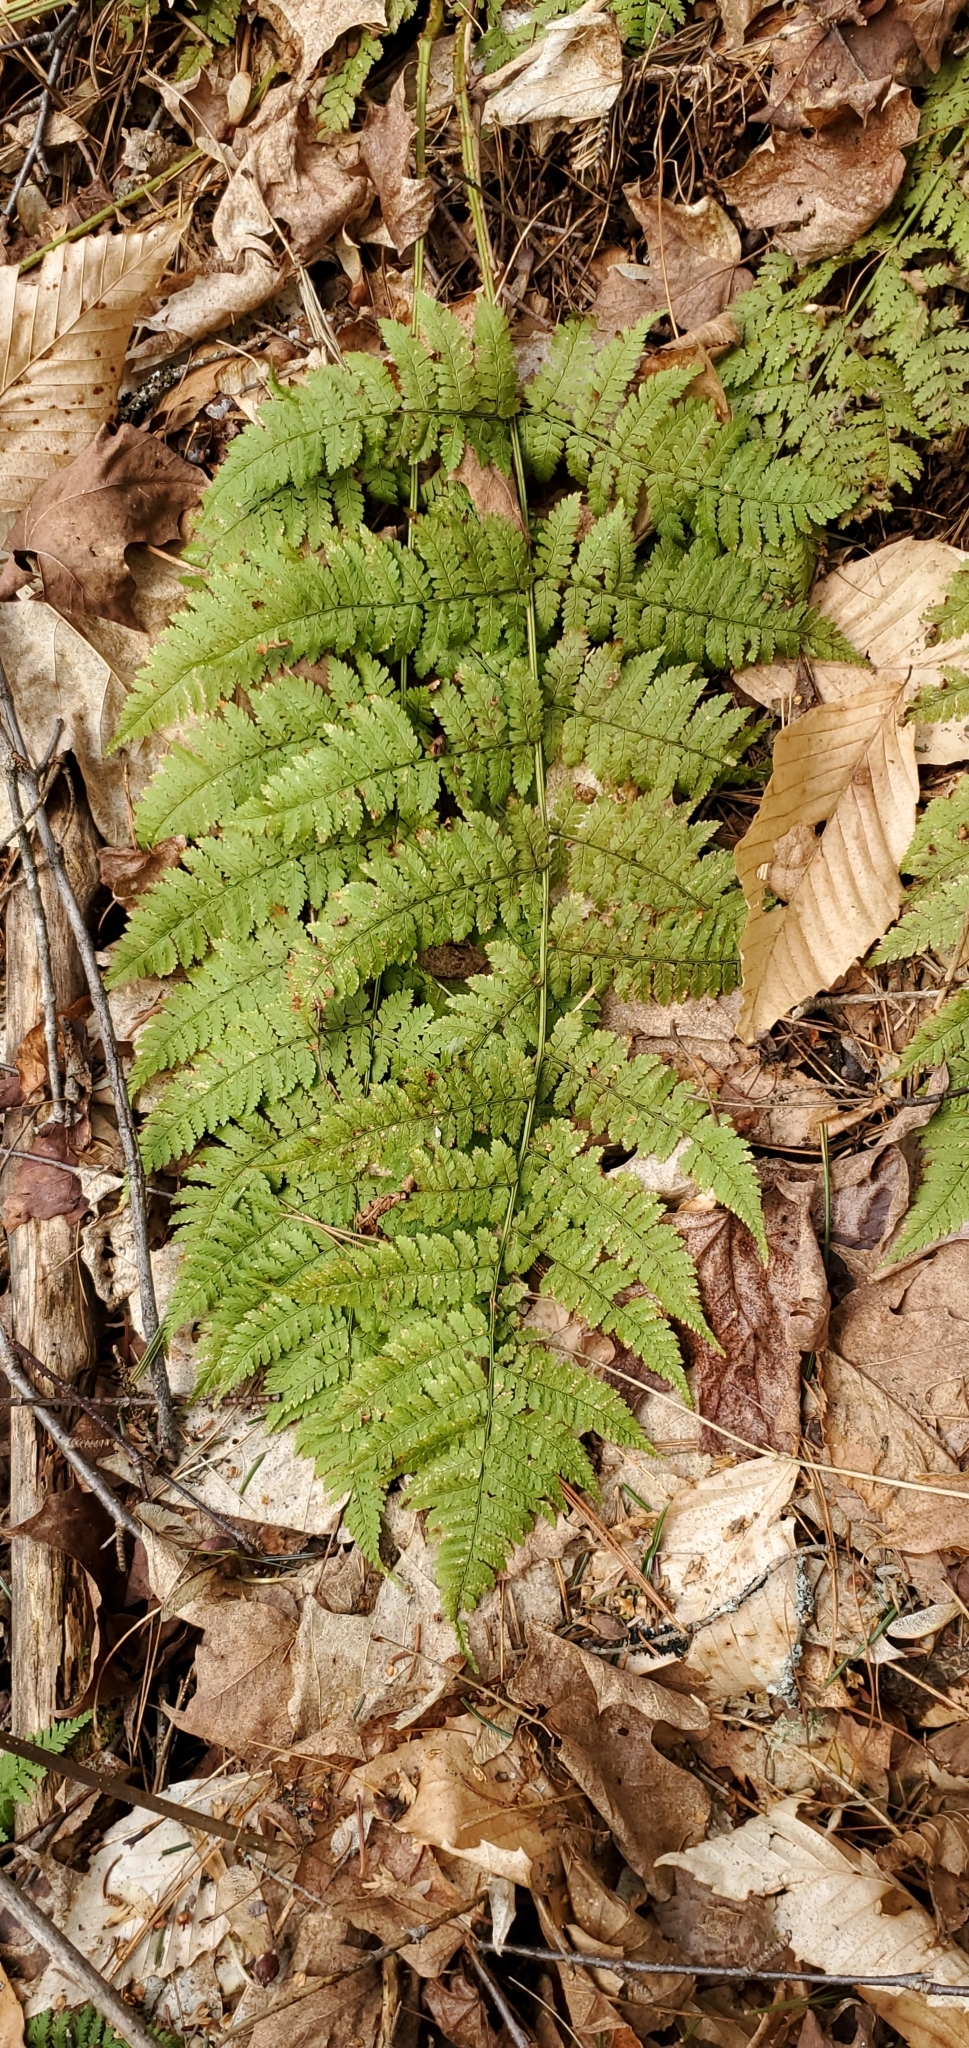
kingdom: Plantae
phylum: Tracheophyta
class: Polypodiopsida
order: Polypodiales
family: Dryopteridaceae
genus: Dryopteris
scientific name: Dryopteris intermedia
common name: Evergreen wood fern
